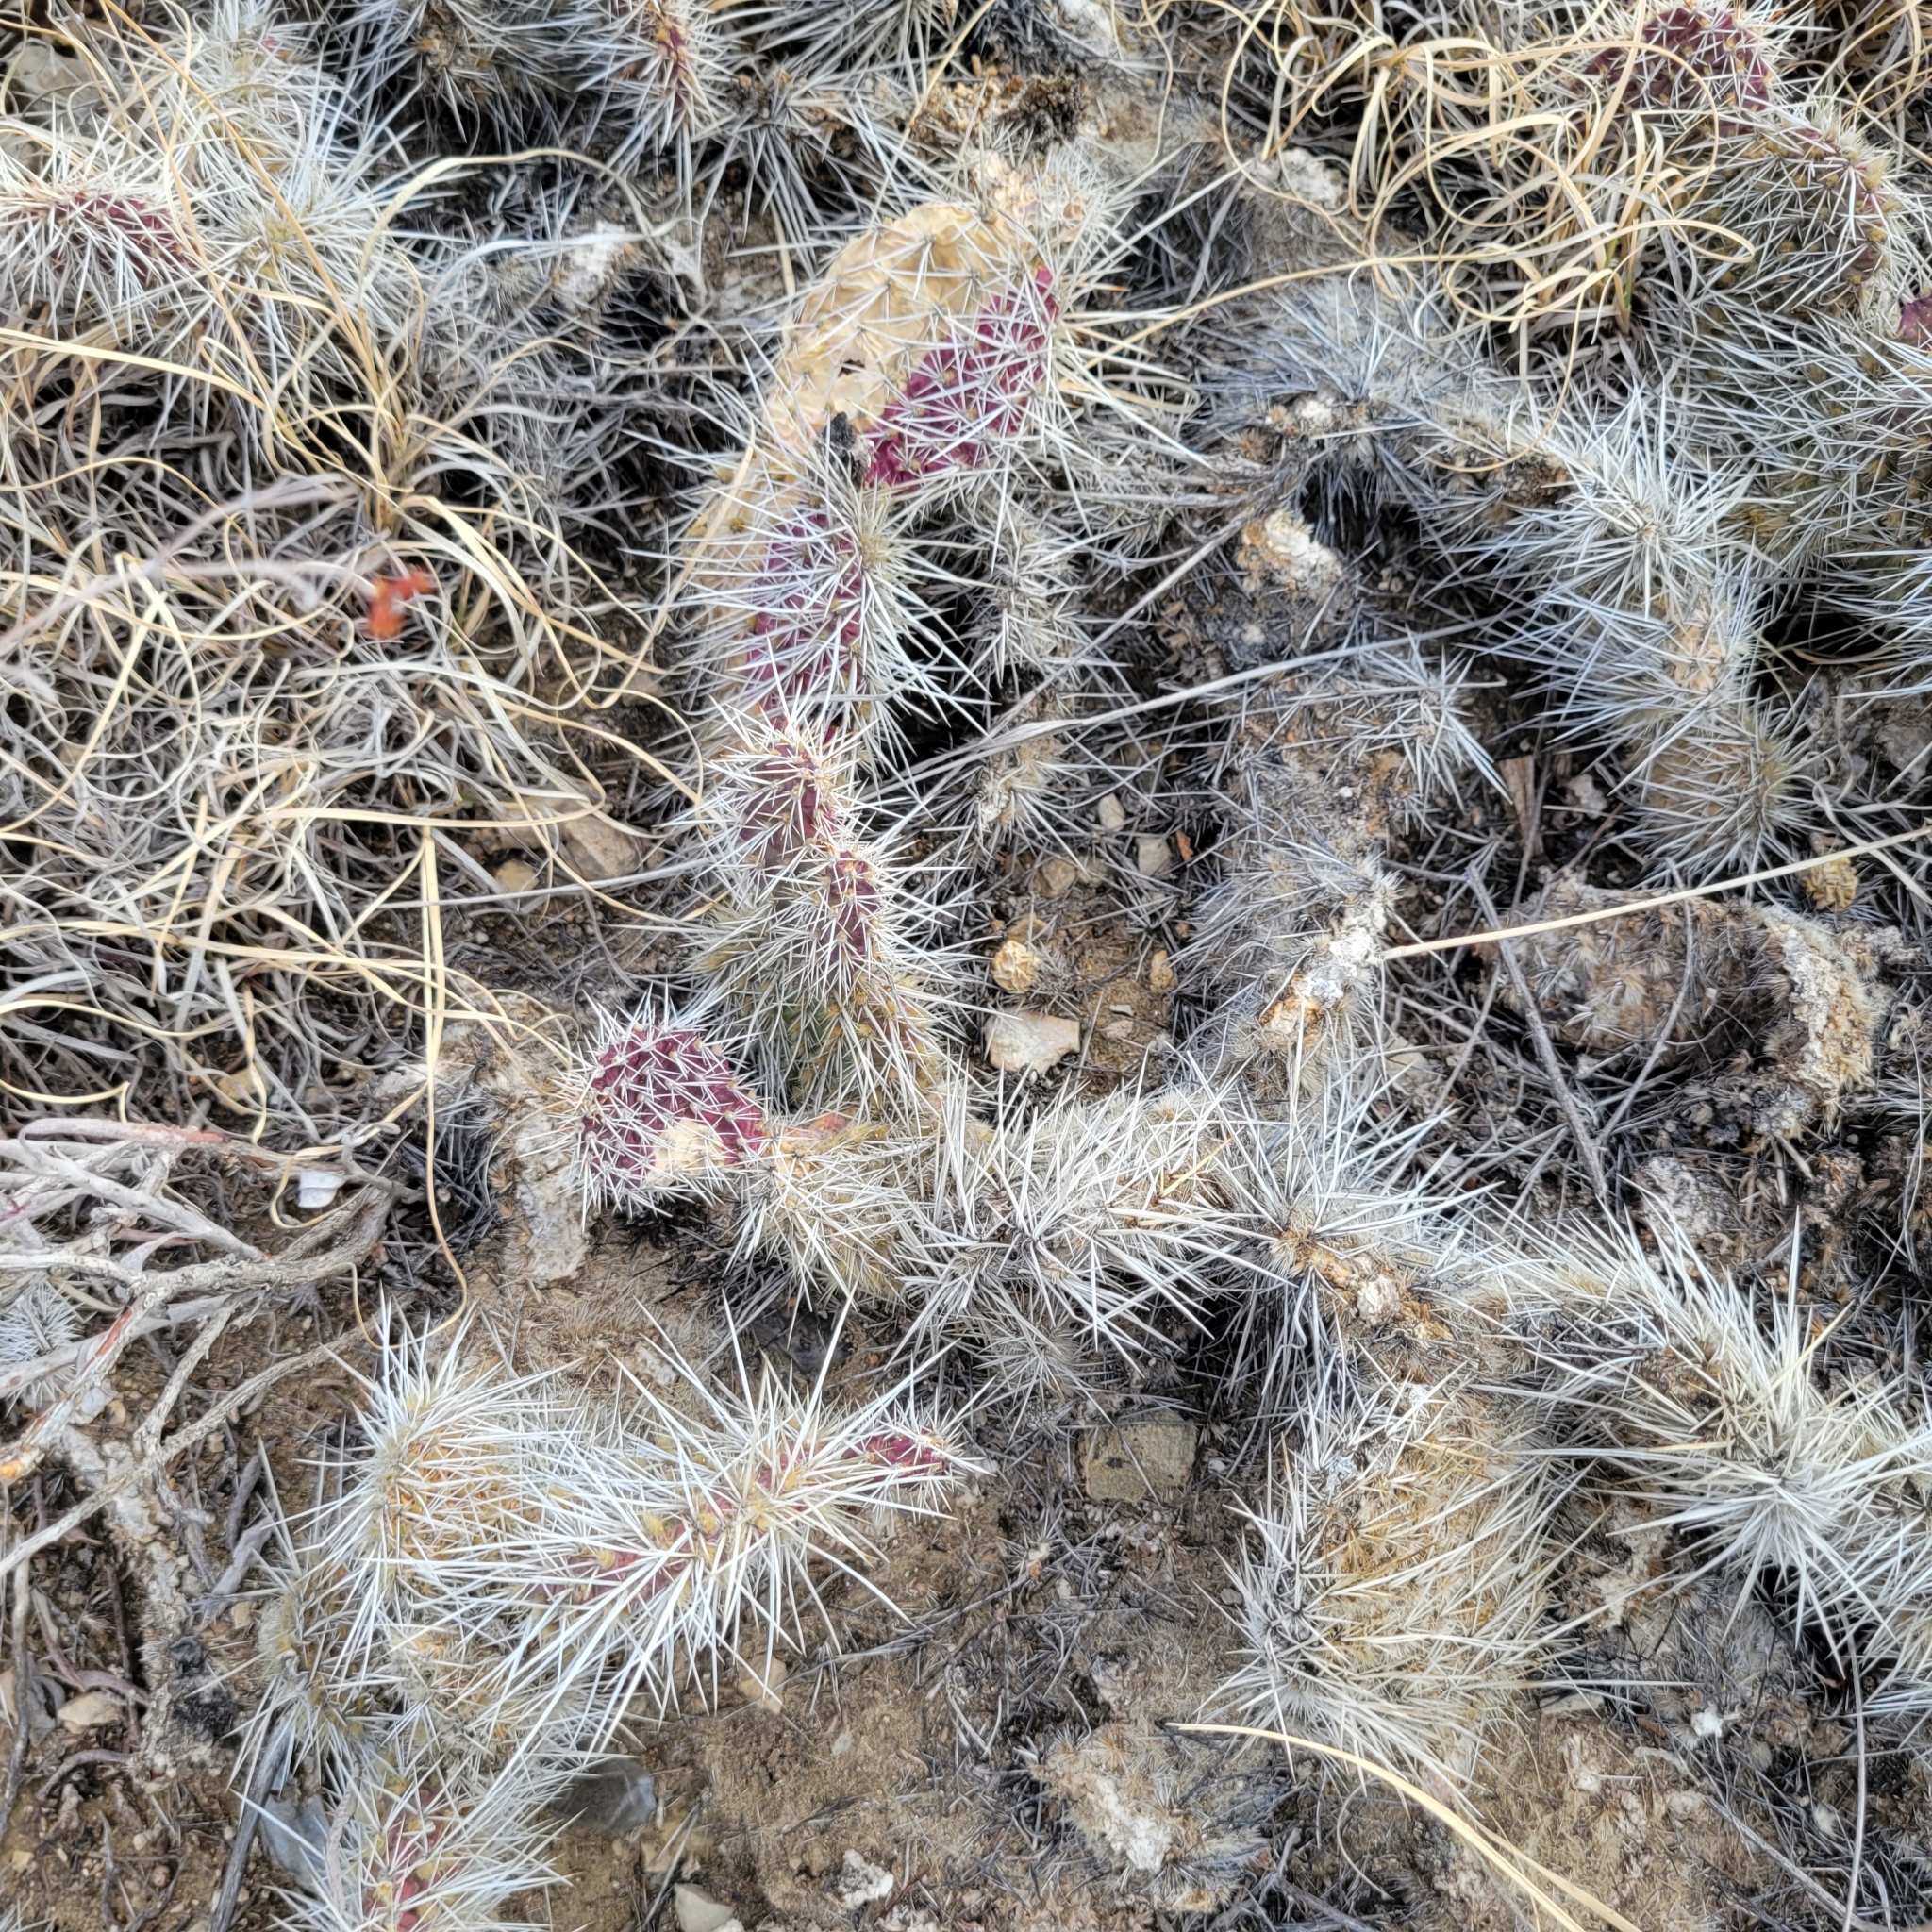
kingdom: Plantae
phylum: Tracheophyta
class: Magnoliopsida
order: Caryophyllales
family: Cactaceae
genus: Opuntia
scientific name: Opuntia polyacantha
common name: Plains prickly-pear
